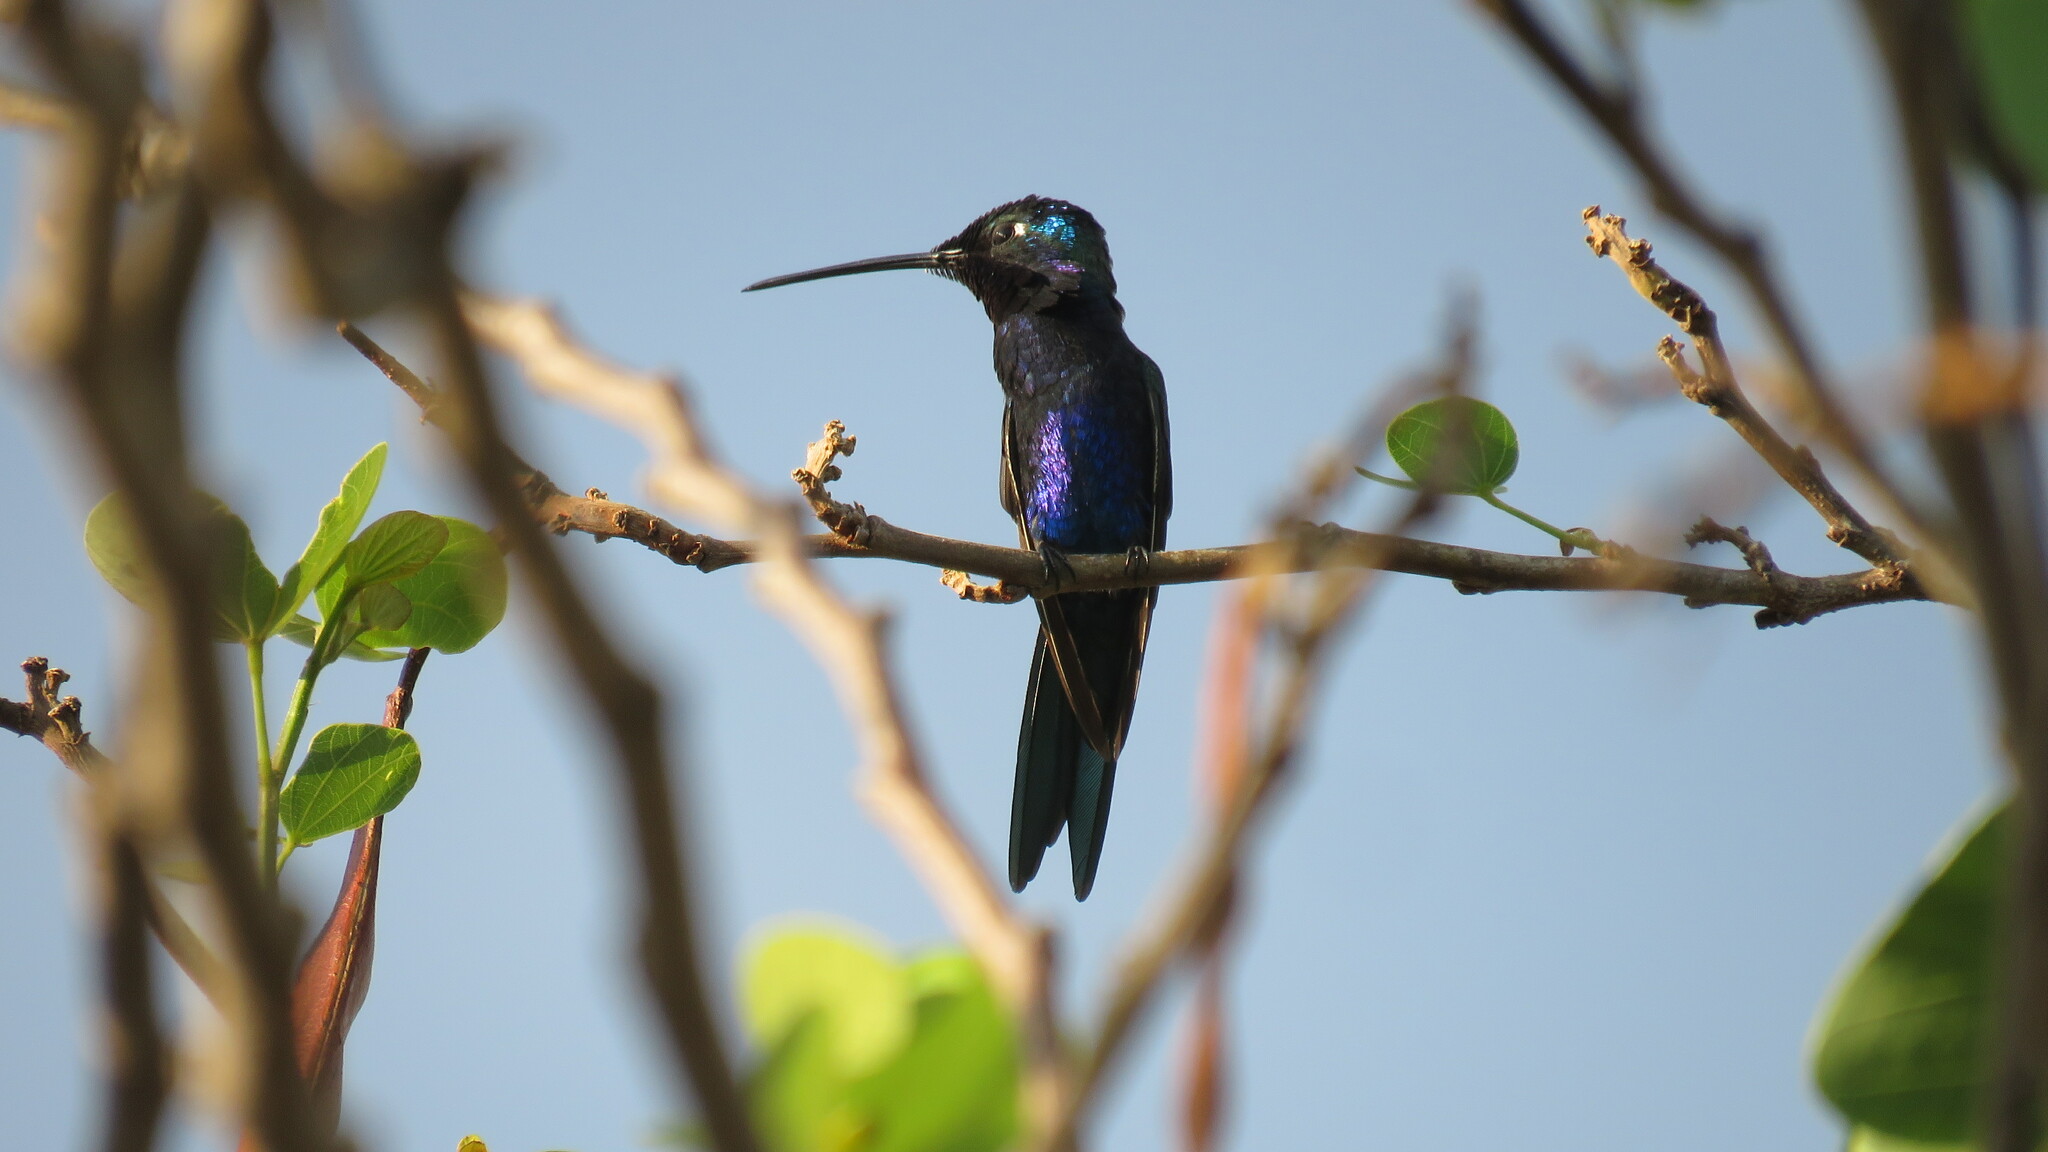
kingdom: Animalia
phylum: Chordata
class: Aves
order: Apodiformes
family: Trochilidae
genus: Heliomaster
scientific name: Heliomaster furcifer
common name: Blue-tufted starthroat
